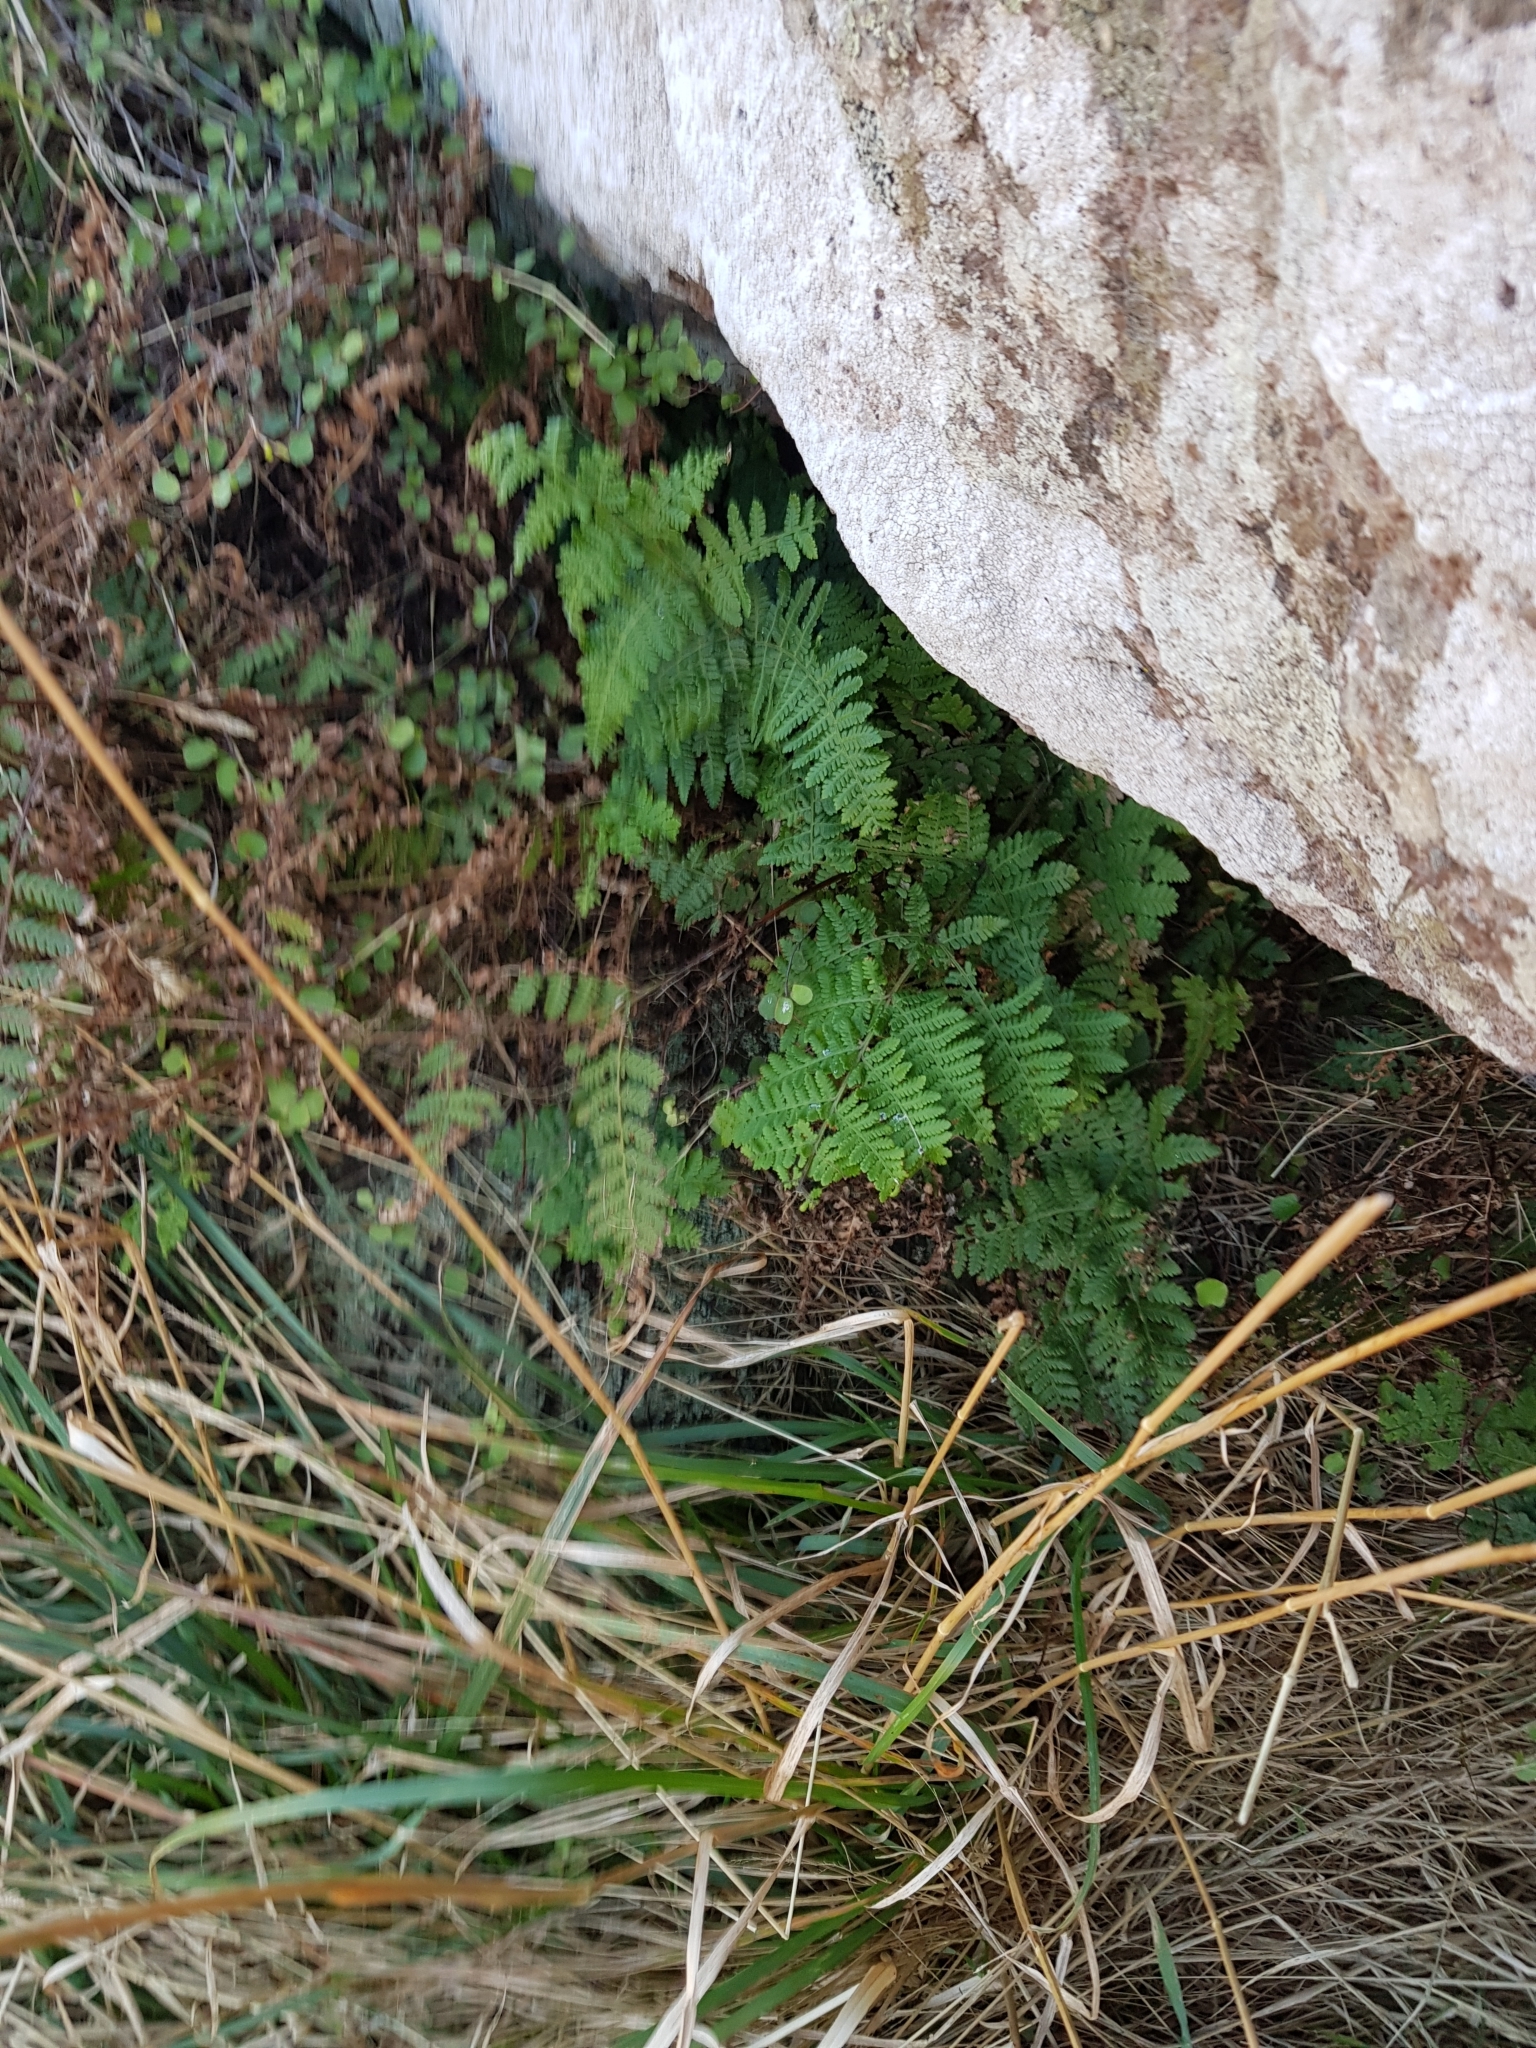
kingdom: Plantae
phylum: Tracheophyta
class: Polypodiopsida
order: Polypodiales
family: Dennstaedtiaceae
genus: Hypolepis
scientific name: Hypolepis ambigua
